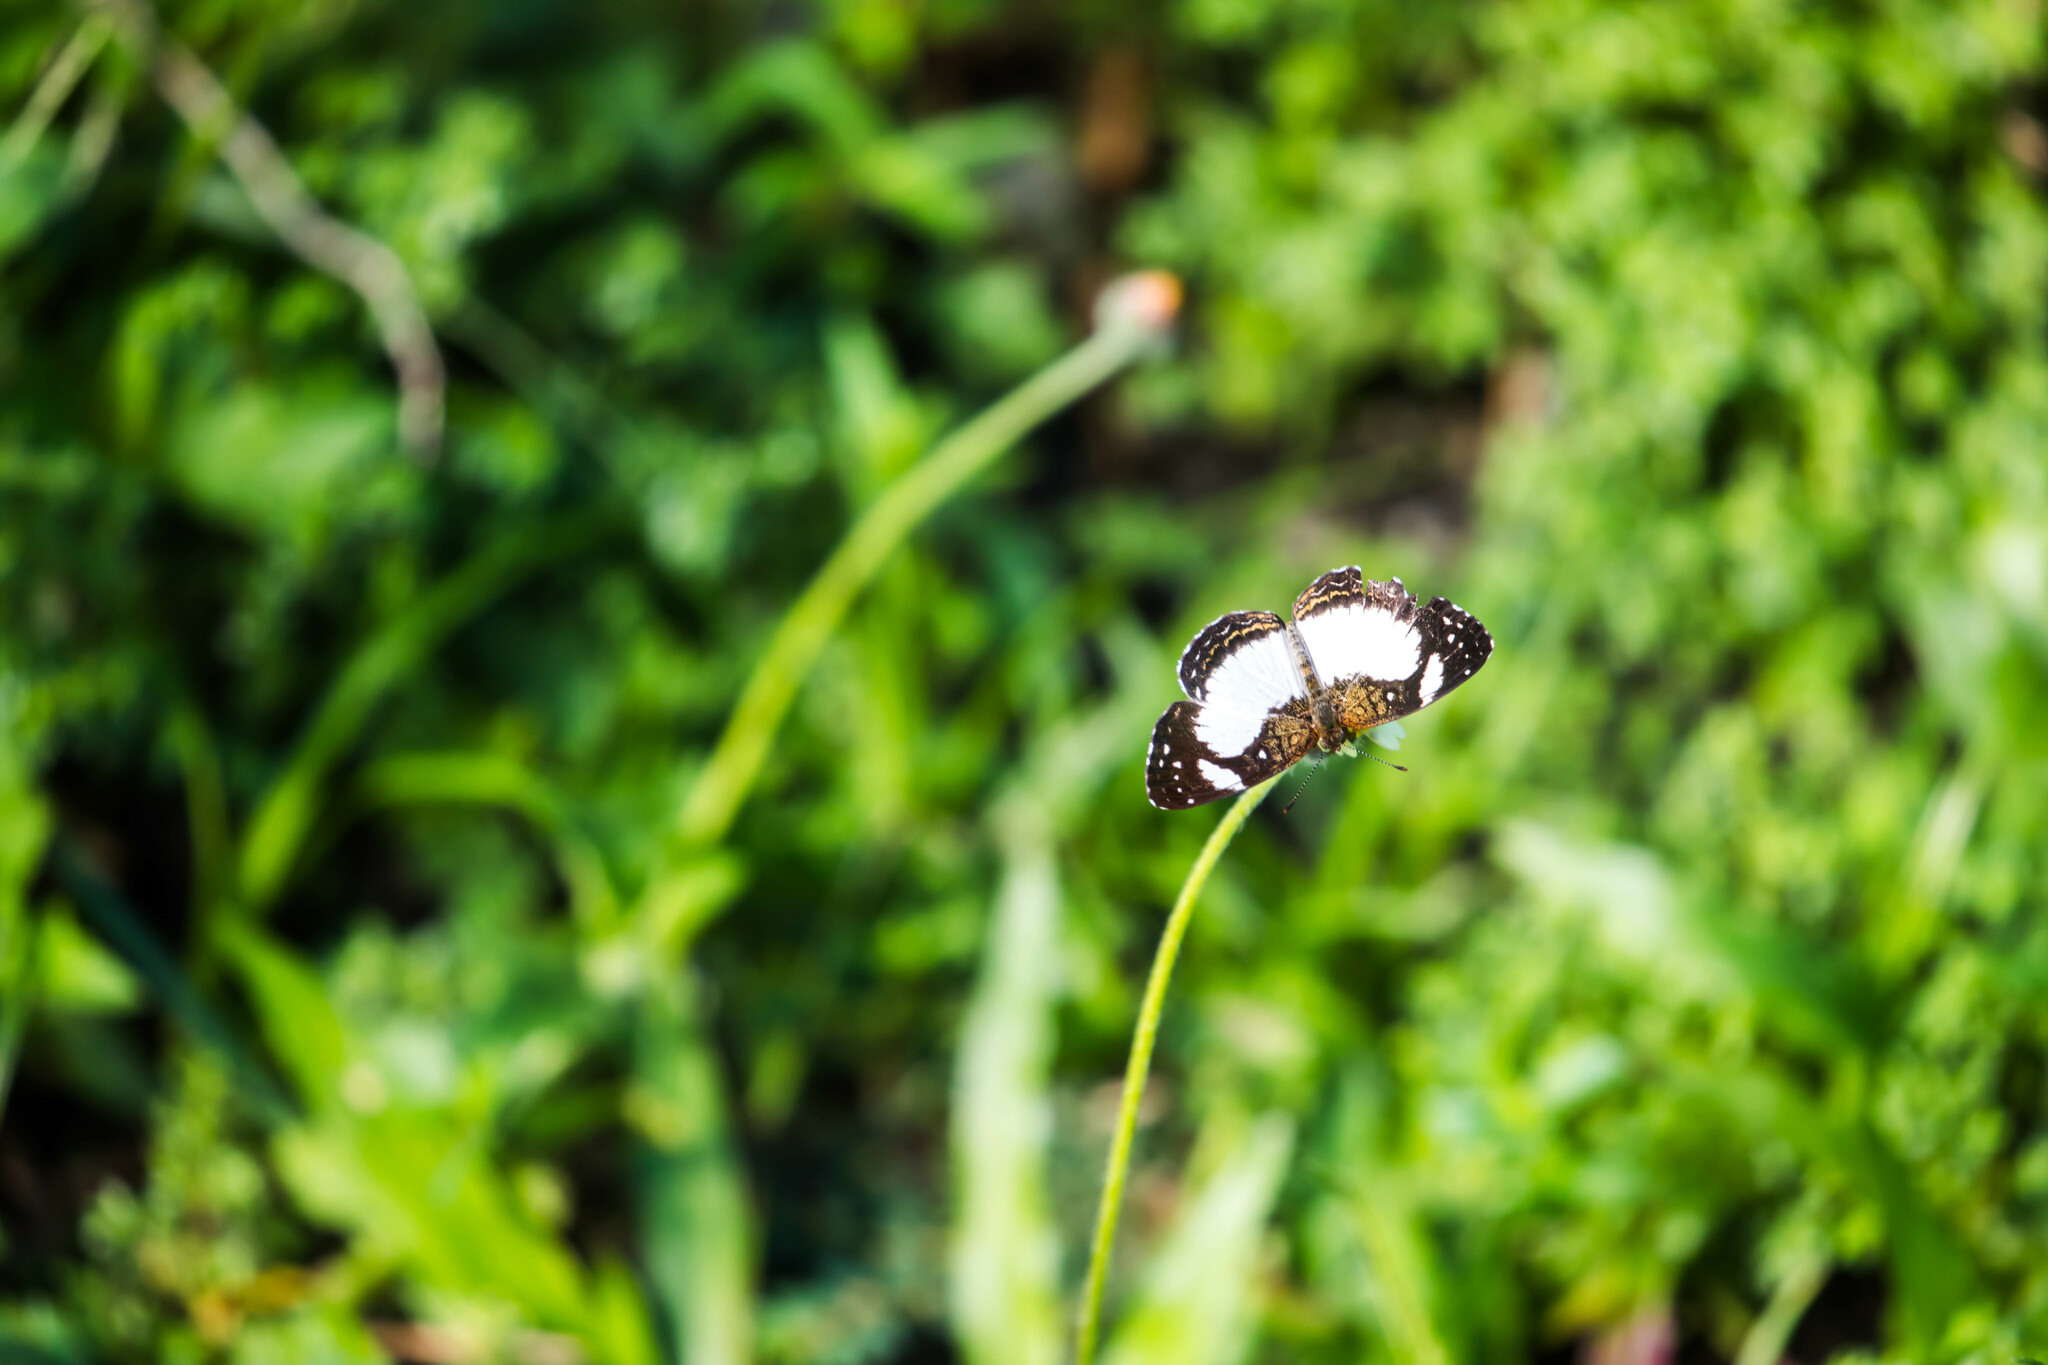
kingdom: Animalia
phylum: Arthropoda
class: Insecta
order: Lepidoptera
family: Nymphalidae
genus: Janatella
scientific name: Janatella leucodesma
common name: Whitened crescent
